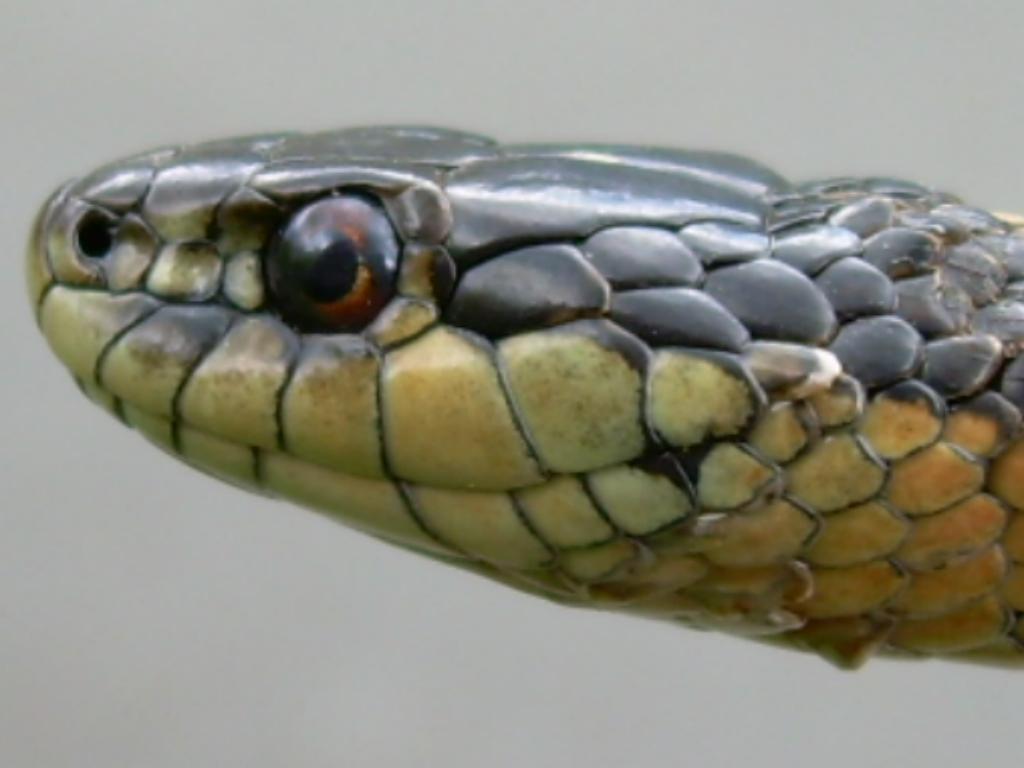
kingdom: Animalia
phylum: Chordata
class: Squamata
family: Colubridae
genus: Thamnophis
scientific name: Thamnophis ordinoides
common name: Northwestern garter snake
